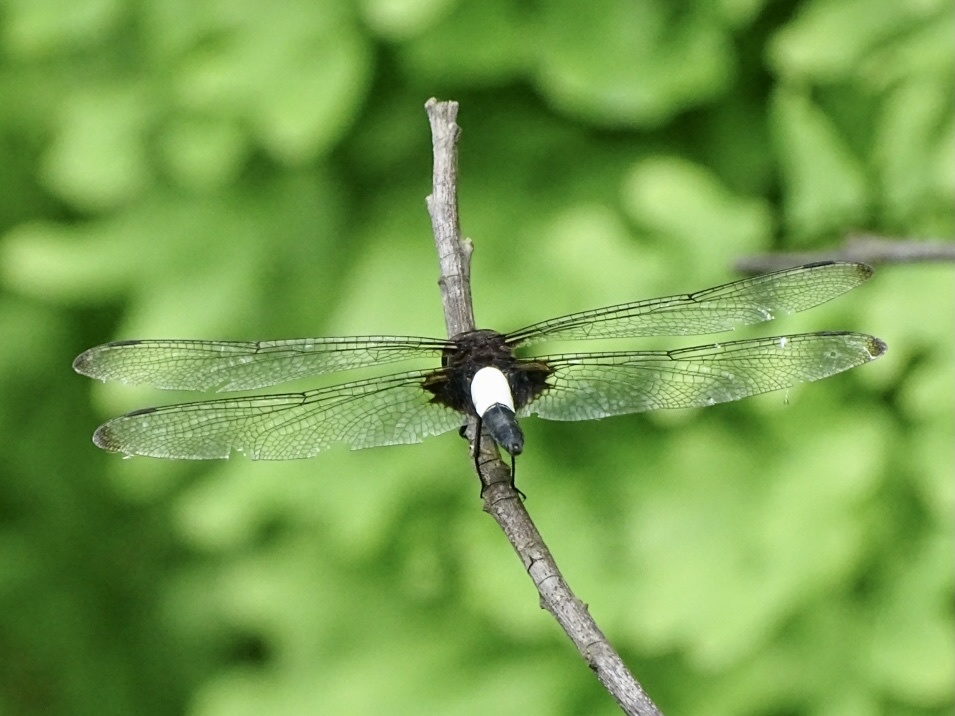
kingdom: Animalia
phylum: Arthropoda
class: Insecta
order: Odonata
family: Libellulidae
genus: Pseudothemis
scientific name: Pseudothemis zonata
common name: Pied skimmer
